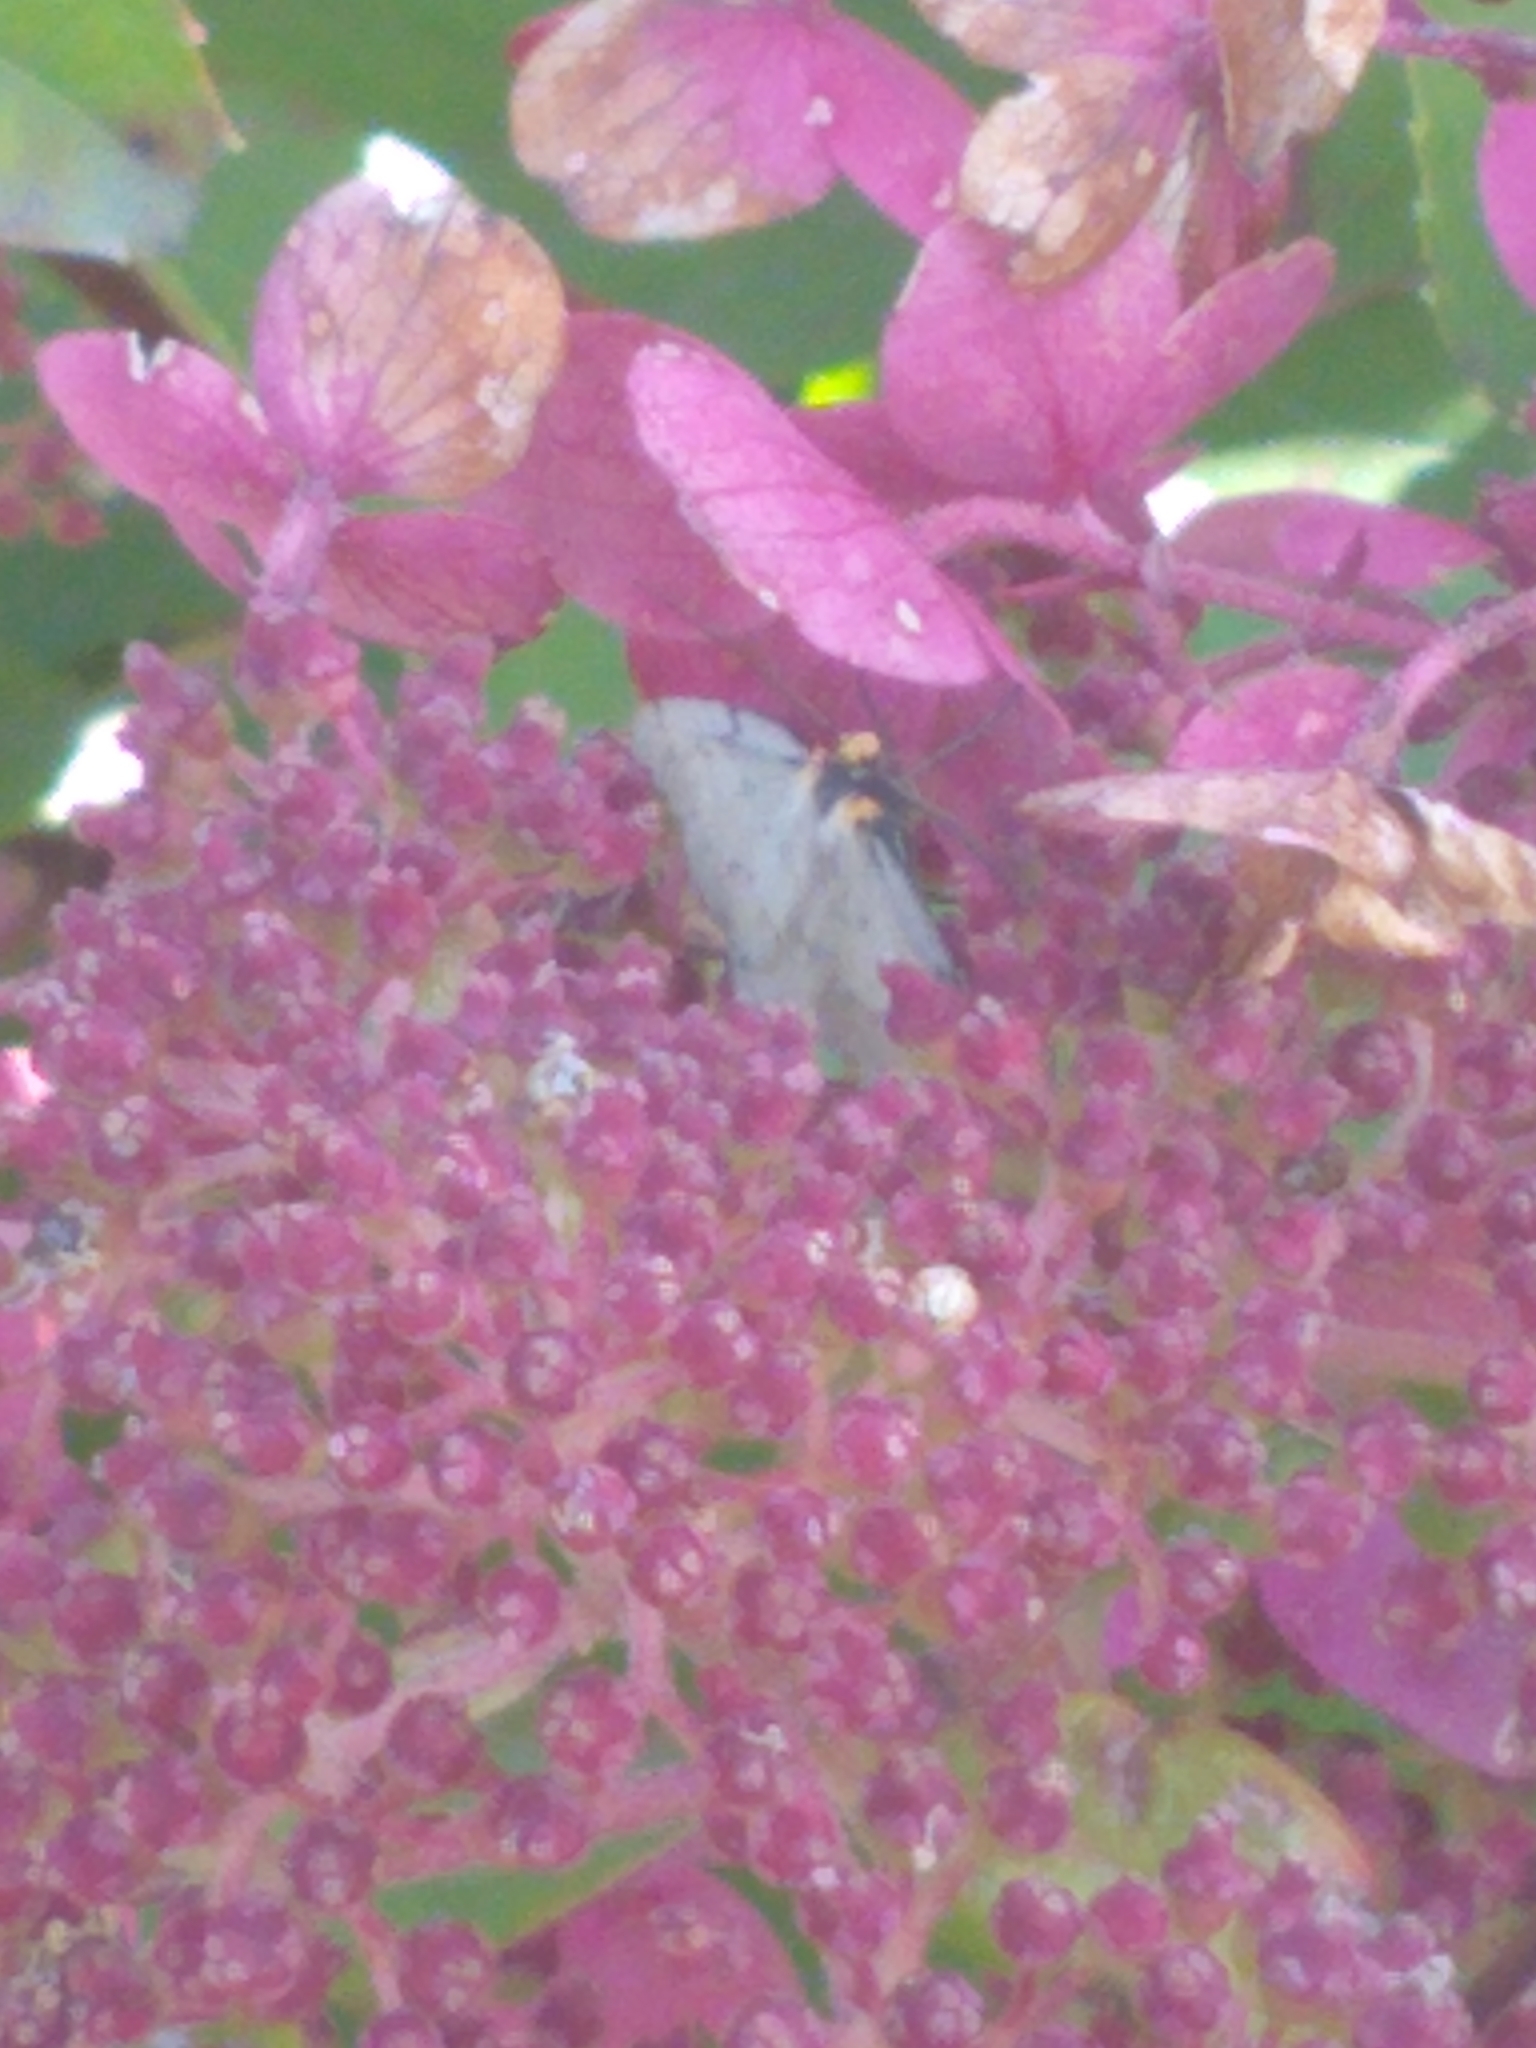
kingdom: Animalia
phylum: Arthropoda
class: Insecta
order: Lepidoptera
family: Geometridae
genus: Cingilia
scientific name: Cingilia catenaria
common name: Chain-dotted geometer
